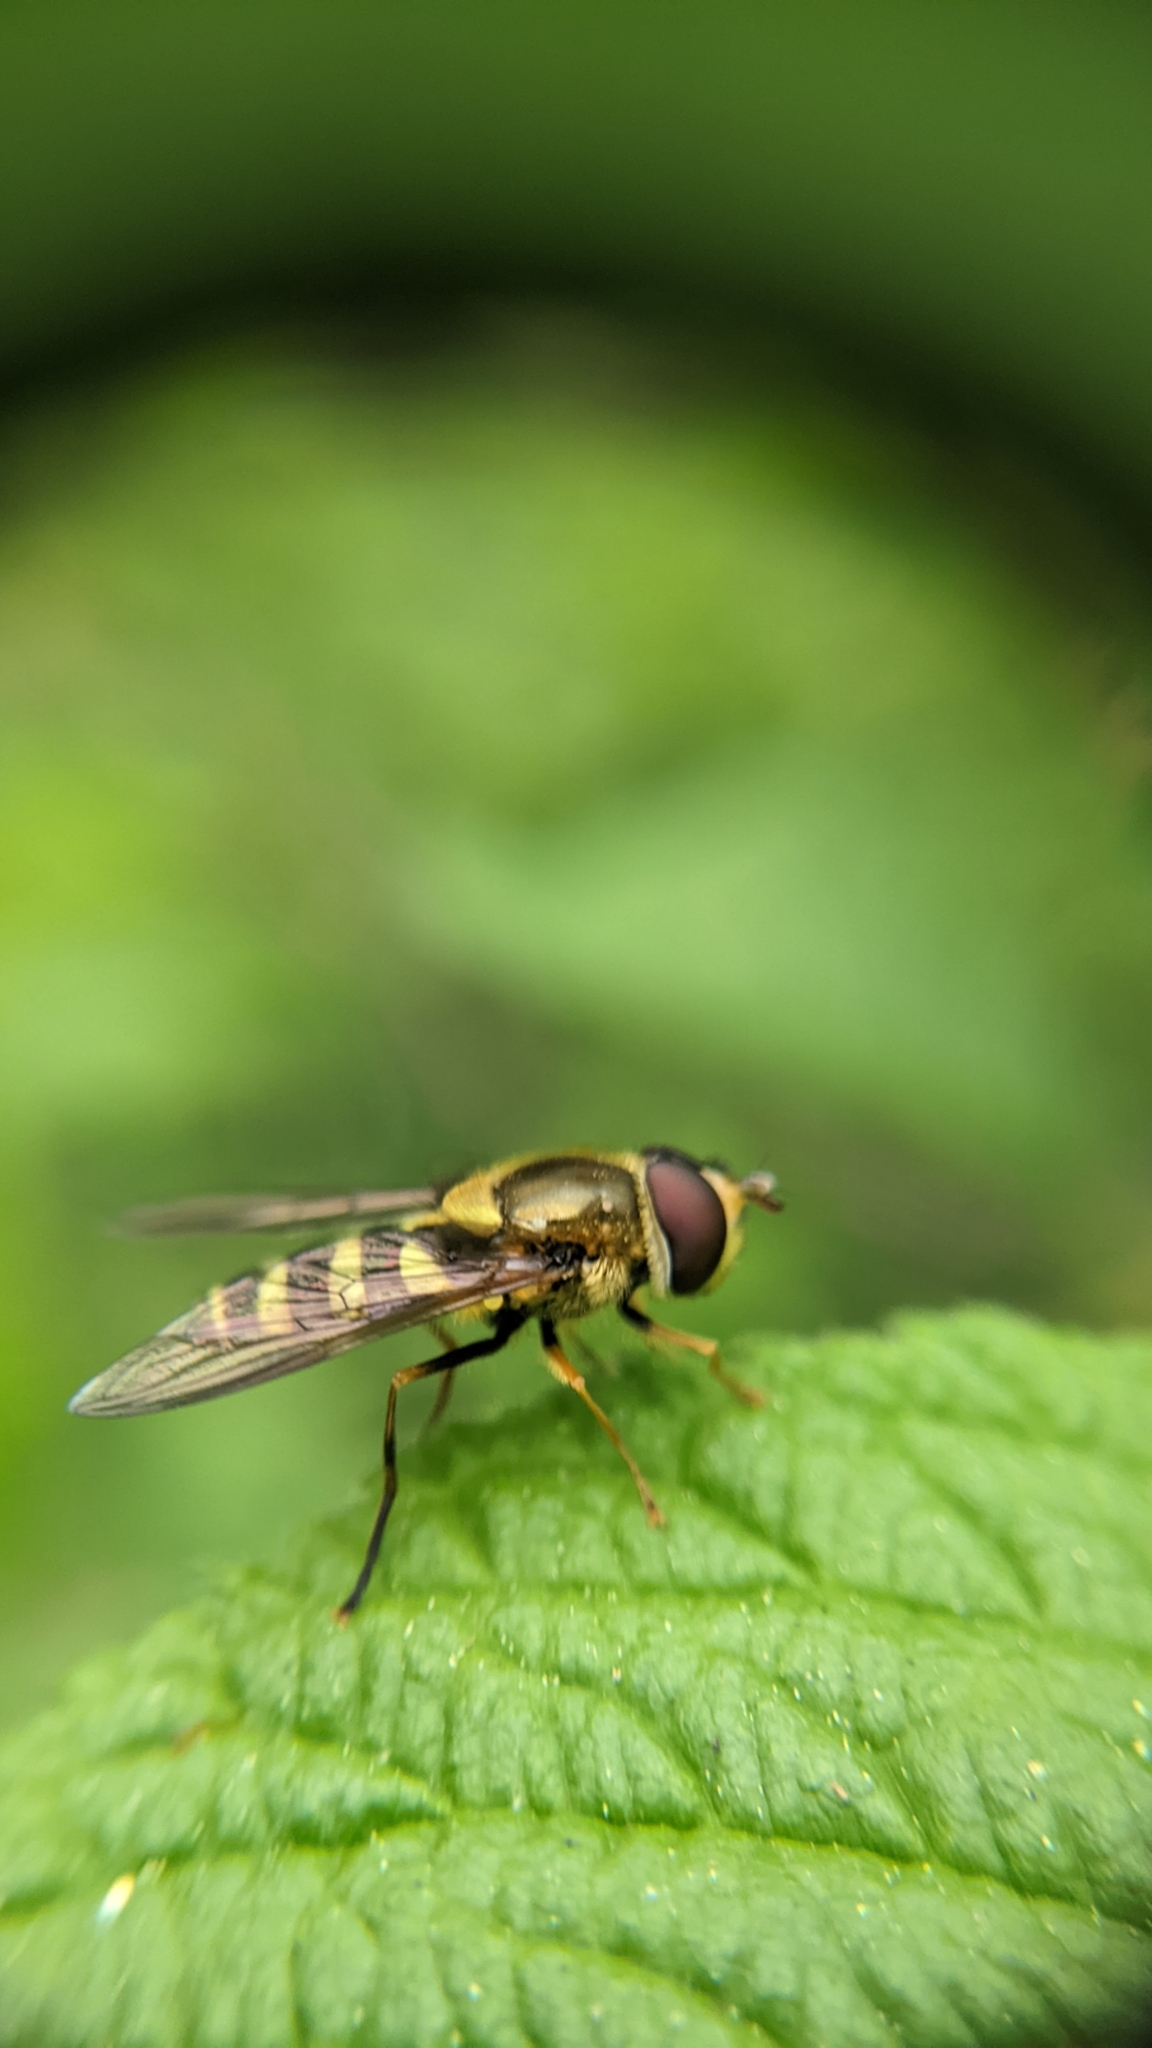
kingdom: Animalia
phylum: Arthropoda
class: Insecta
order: Diptera
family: Syrphidae
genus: Syrphus
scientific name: Syrphus opinator
